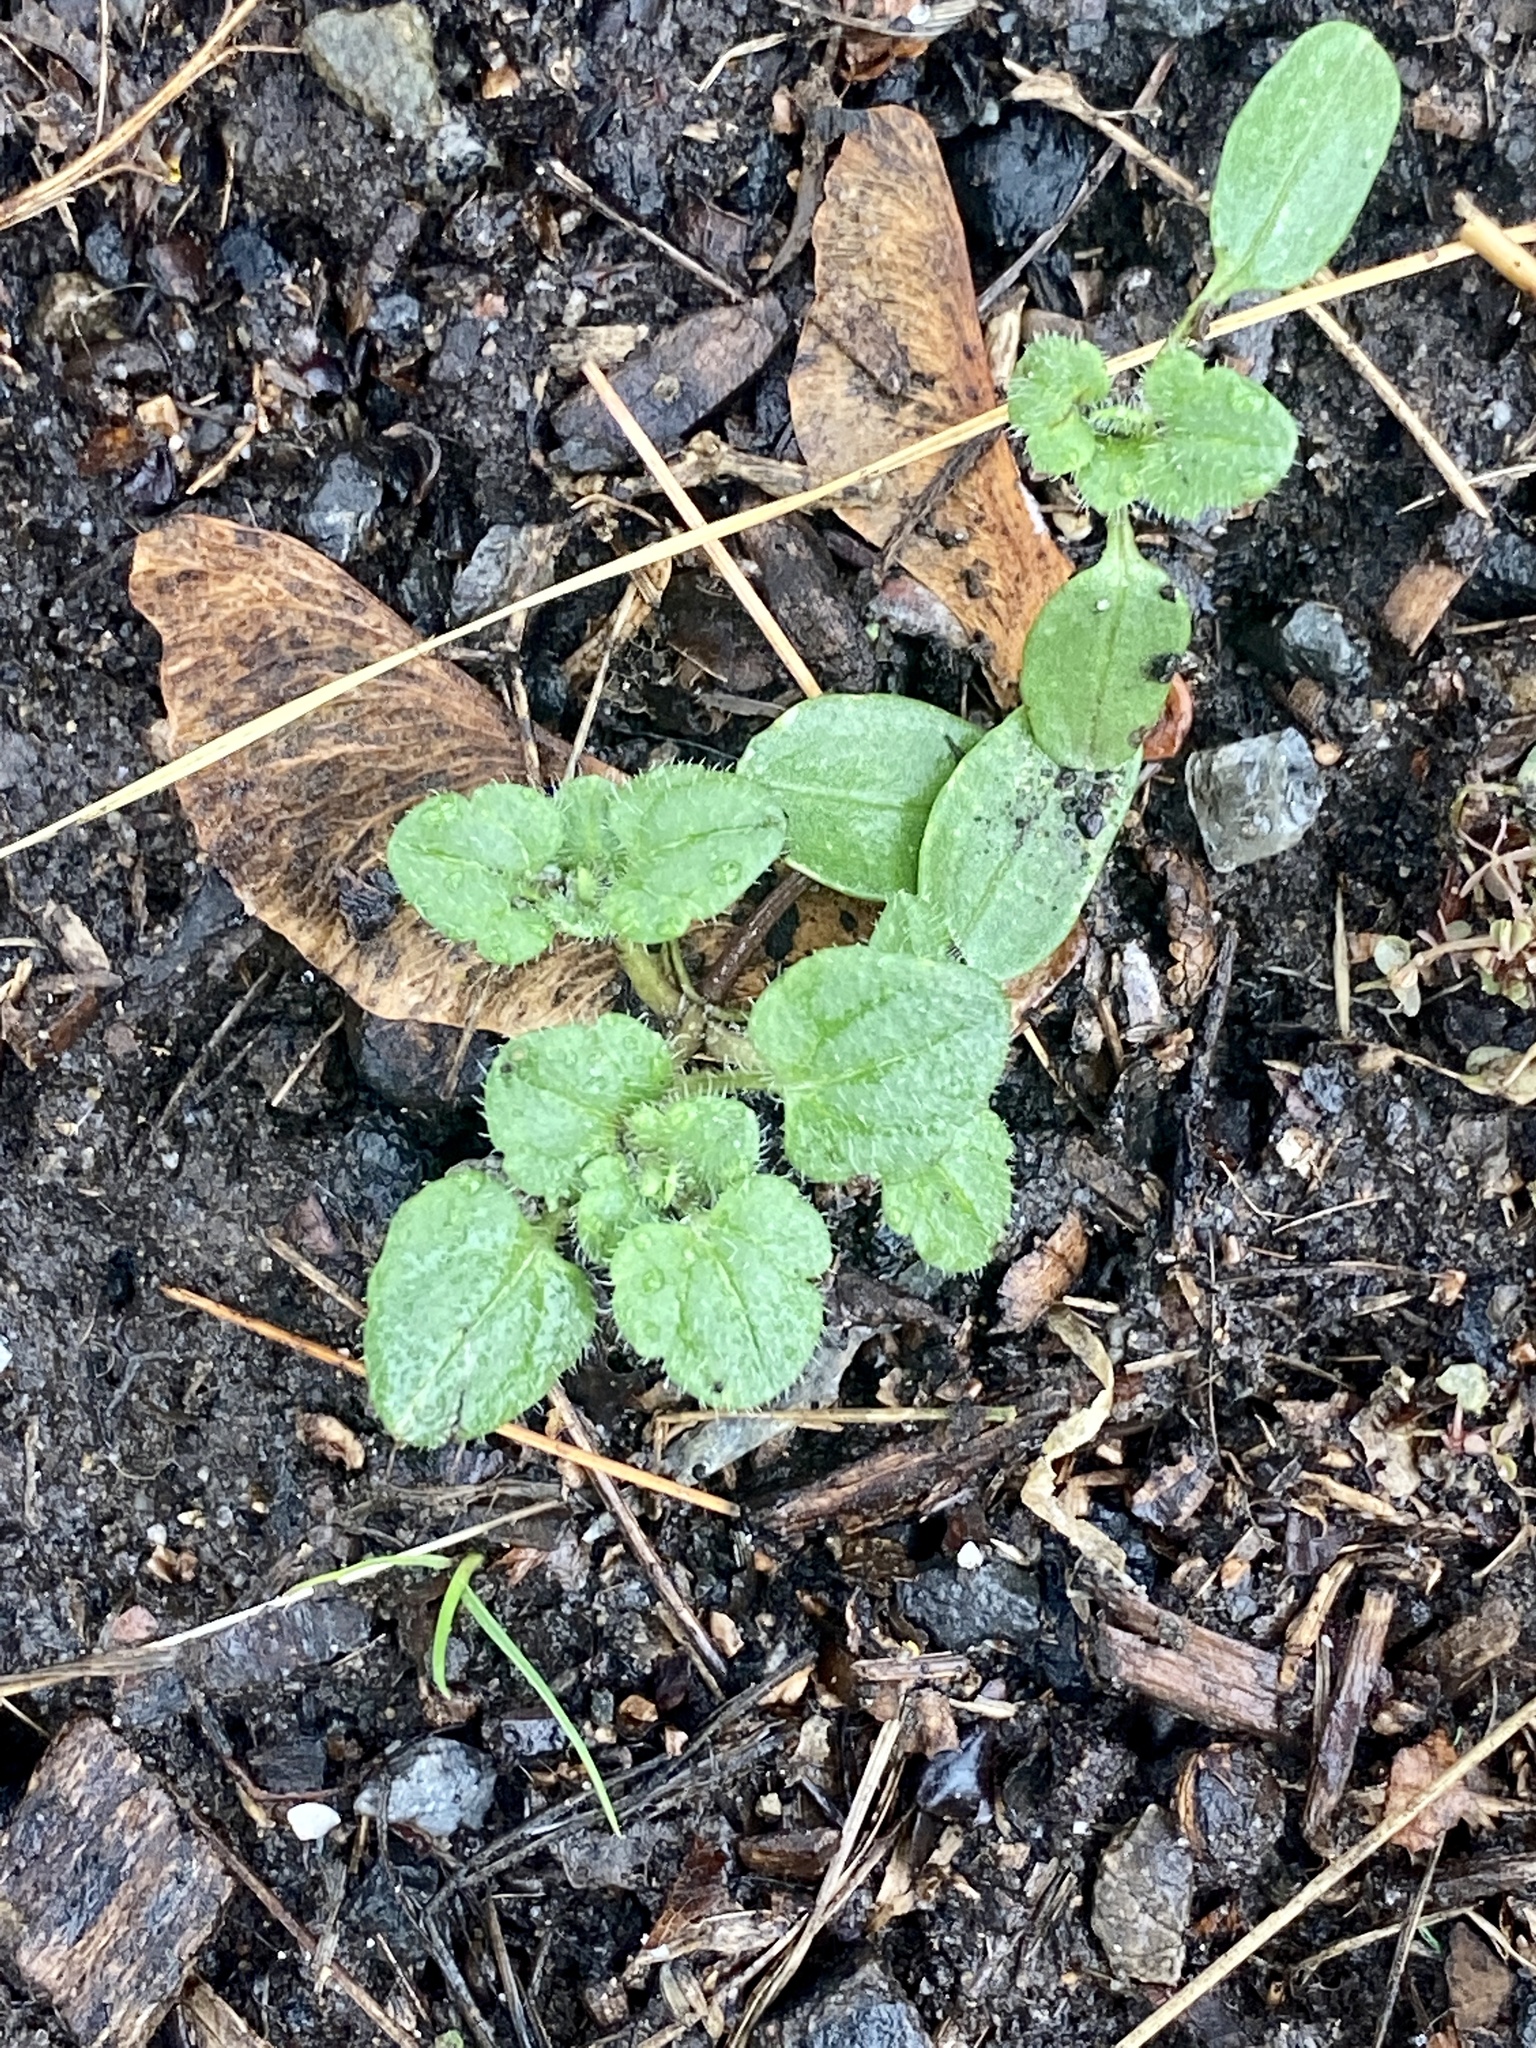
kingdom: Plantae
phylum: Tracheophyta
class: Magnoliopsida
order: Lamiales
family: Plantaginaceae
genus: Veronica
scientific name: Veronica hederifolia
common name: Ivy-leaved speedwell
